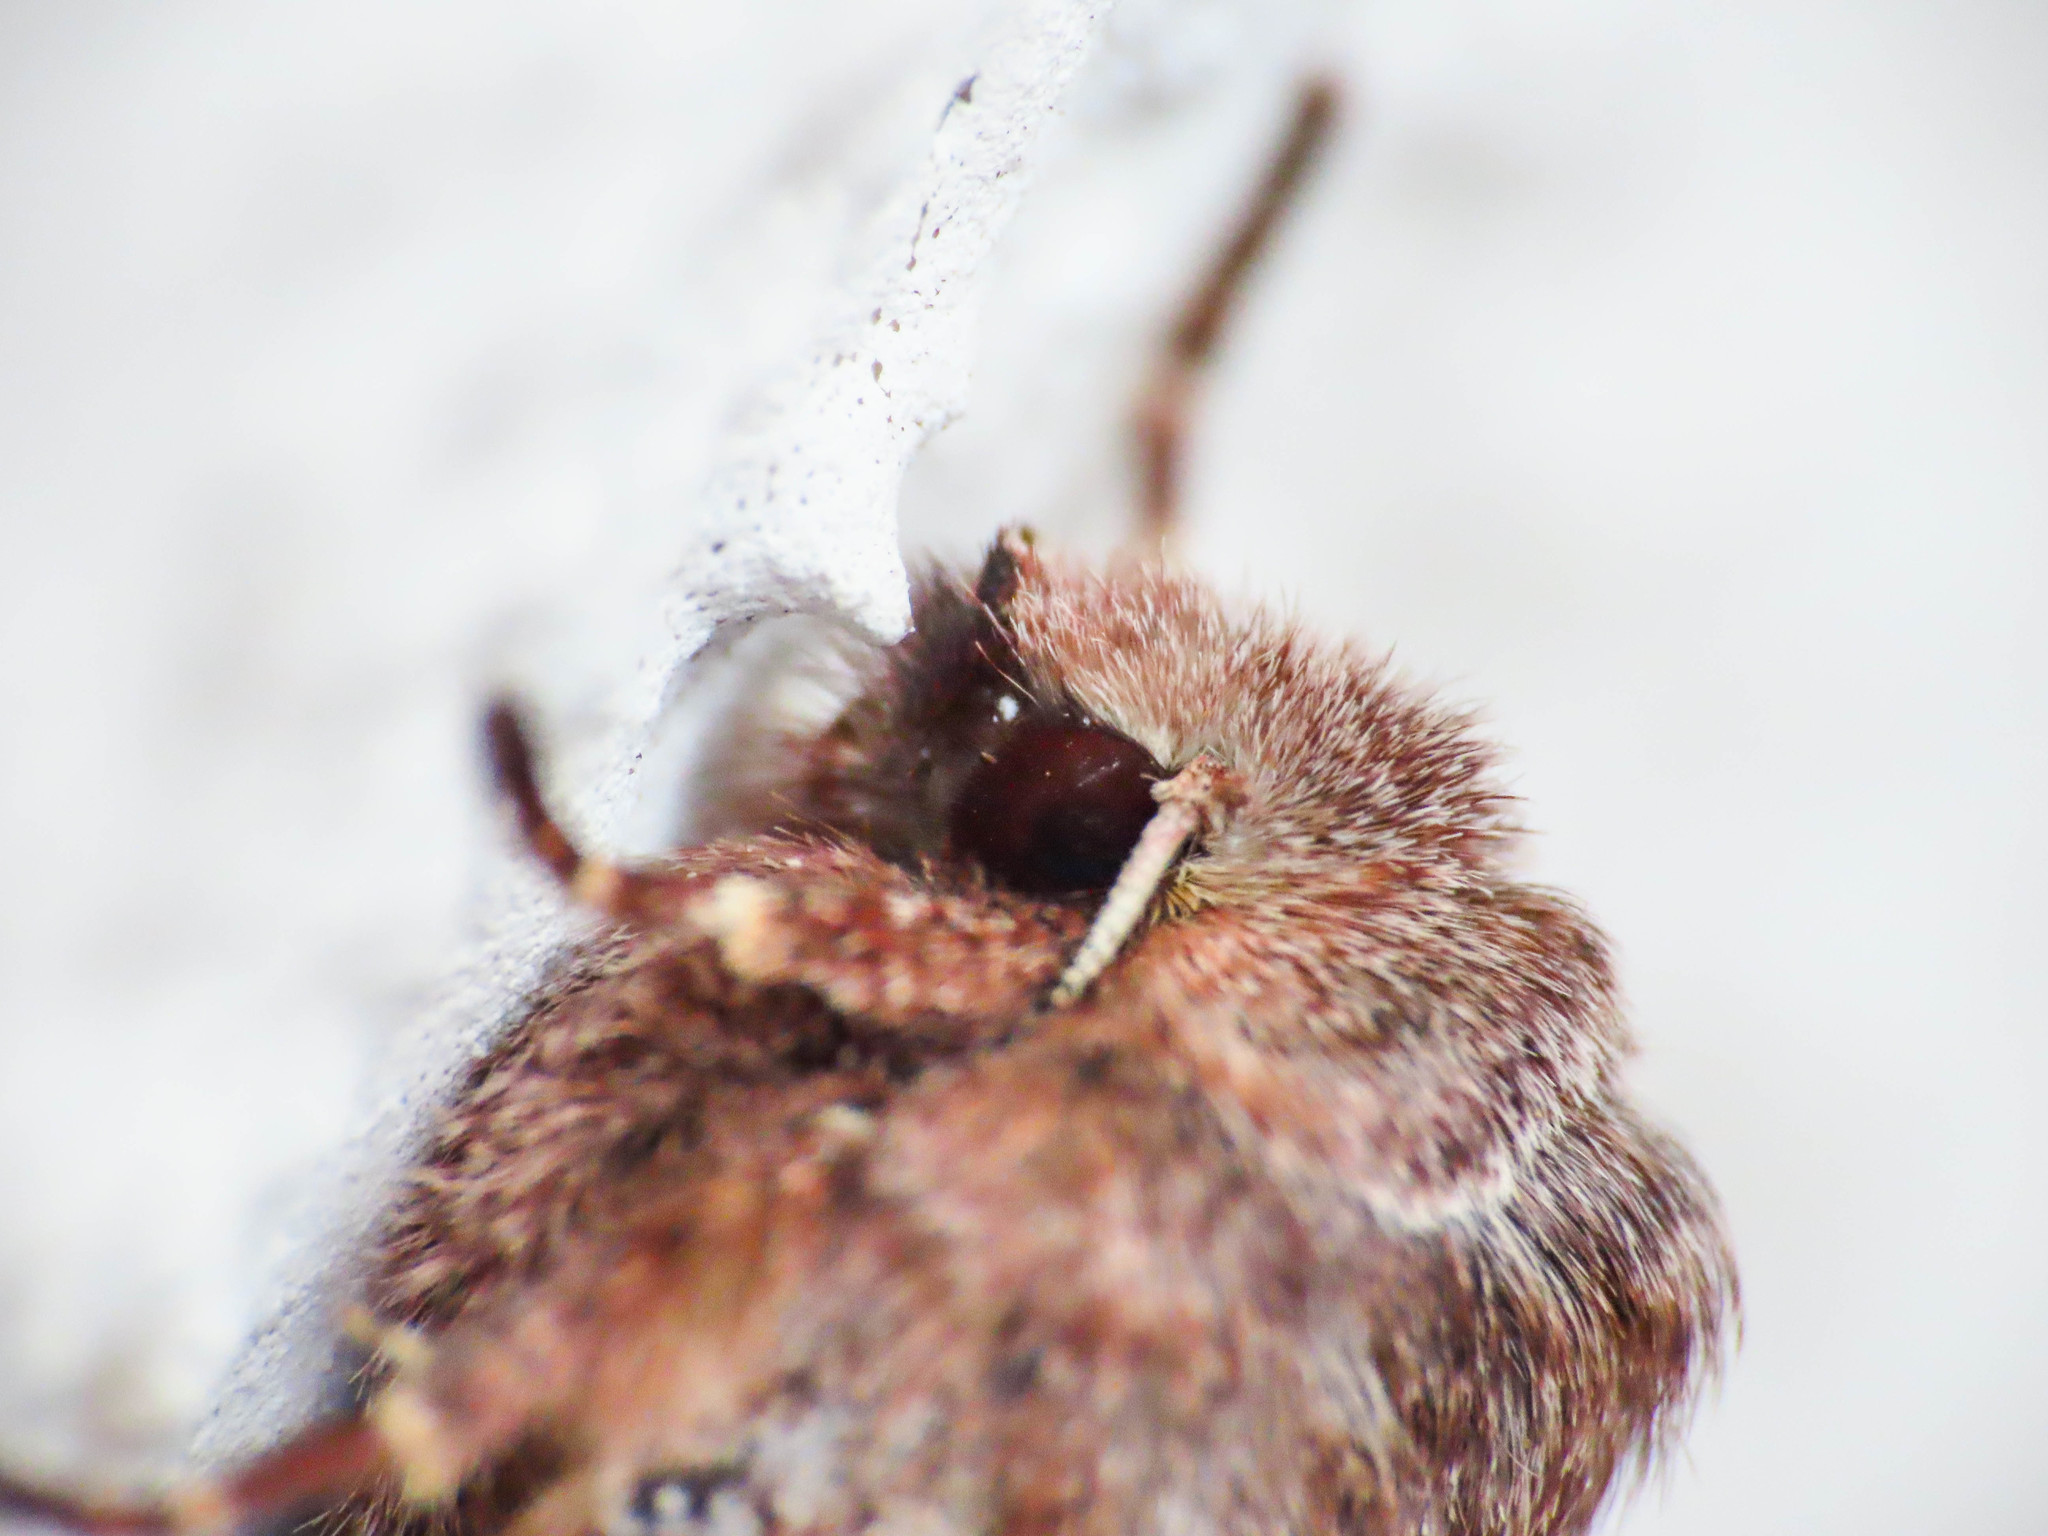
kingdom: Animalia
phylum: Arthropoda
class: Insecta
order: Lepidoptera
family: Noctuidae
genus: Orthosia
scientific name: Orthosia gothica
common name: Hebrew character
